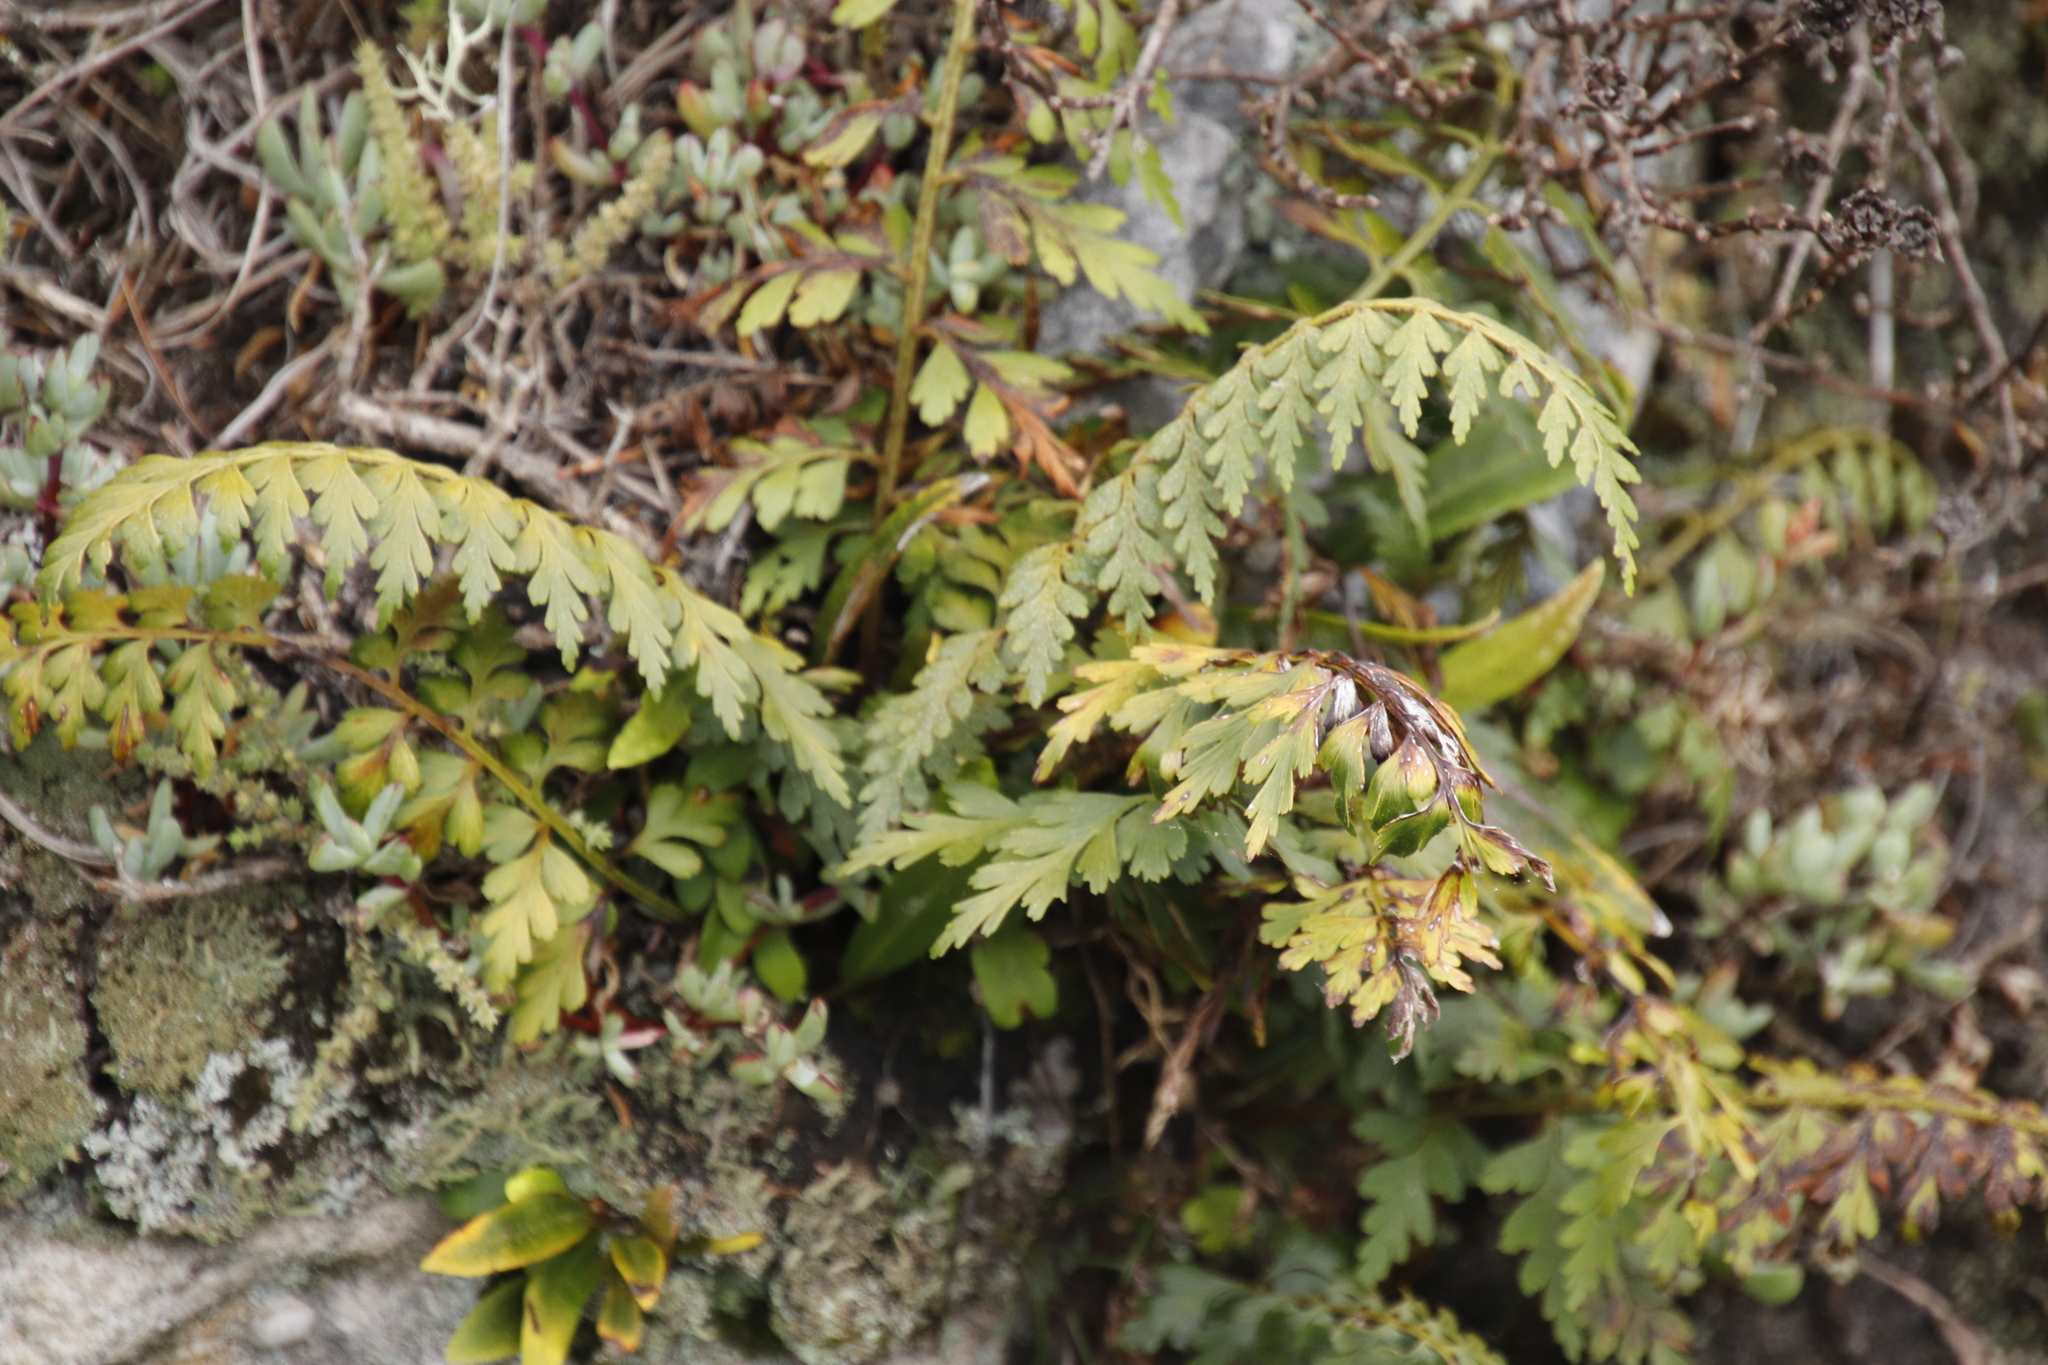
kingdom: Plantae
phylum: Tracheophyta
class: Polypodiopsida
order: Polypodiales
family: Aspleniaceae
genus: Asplenium
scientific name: Asplenium aethiopicum
